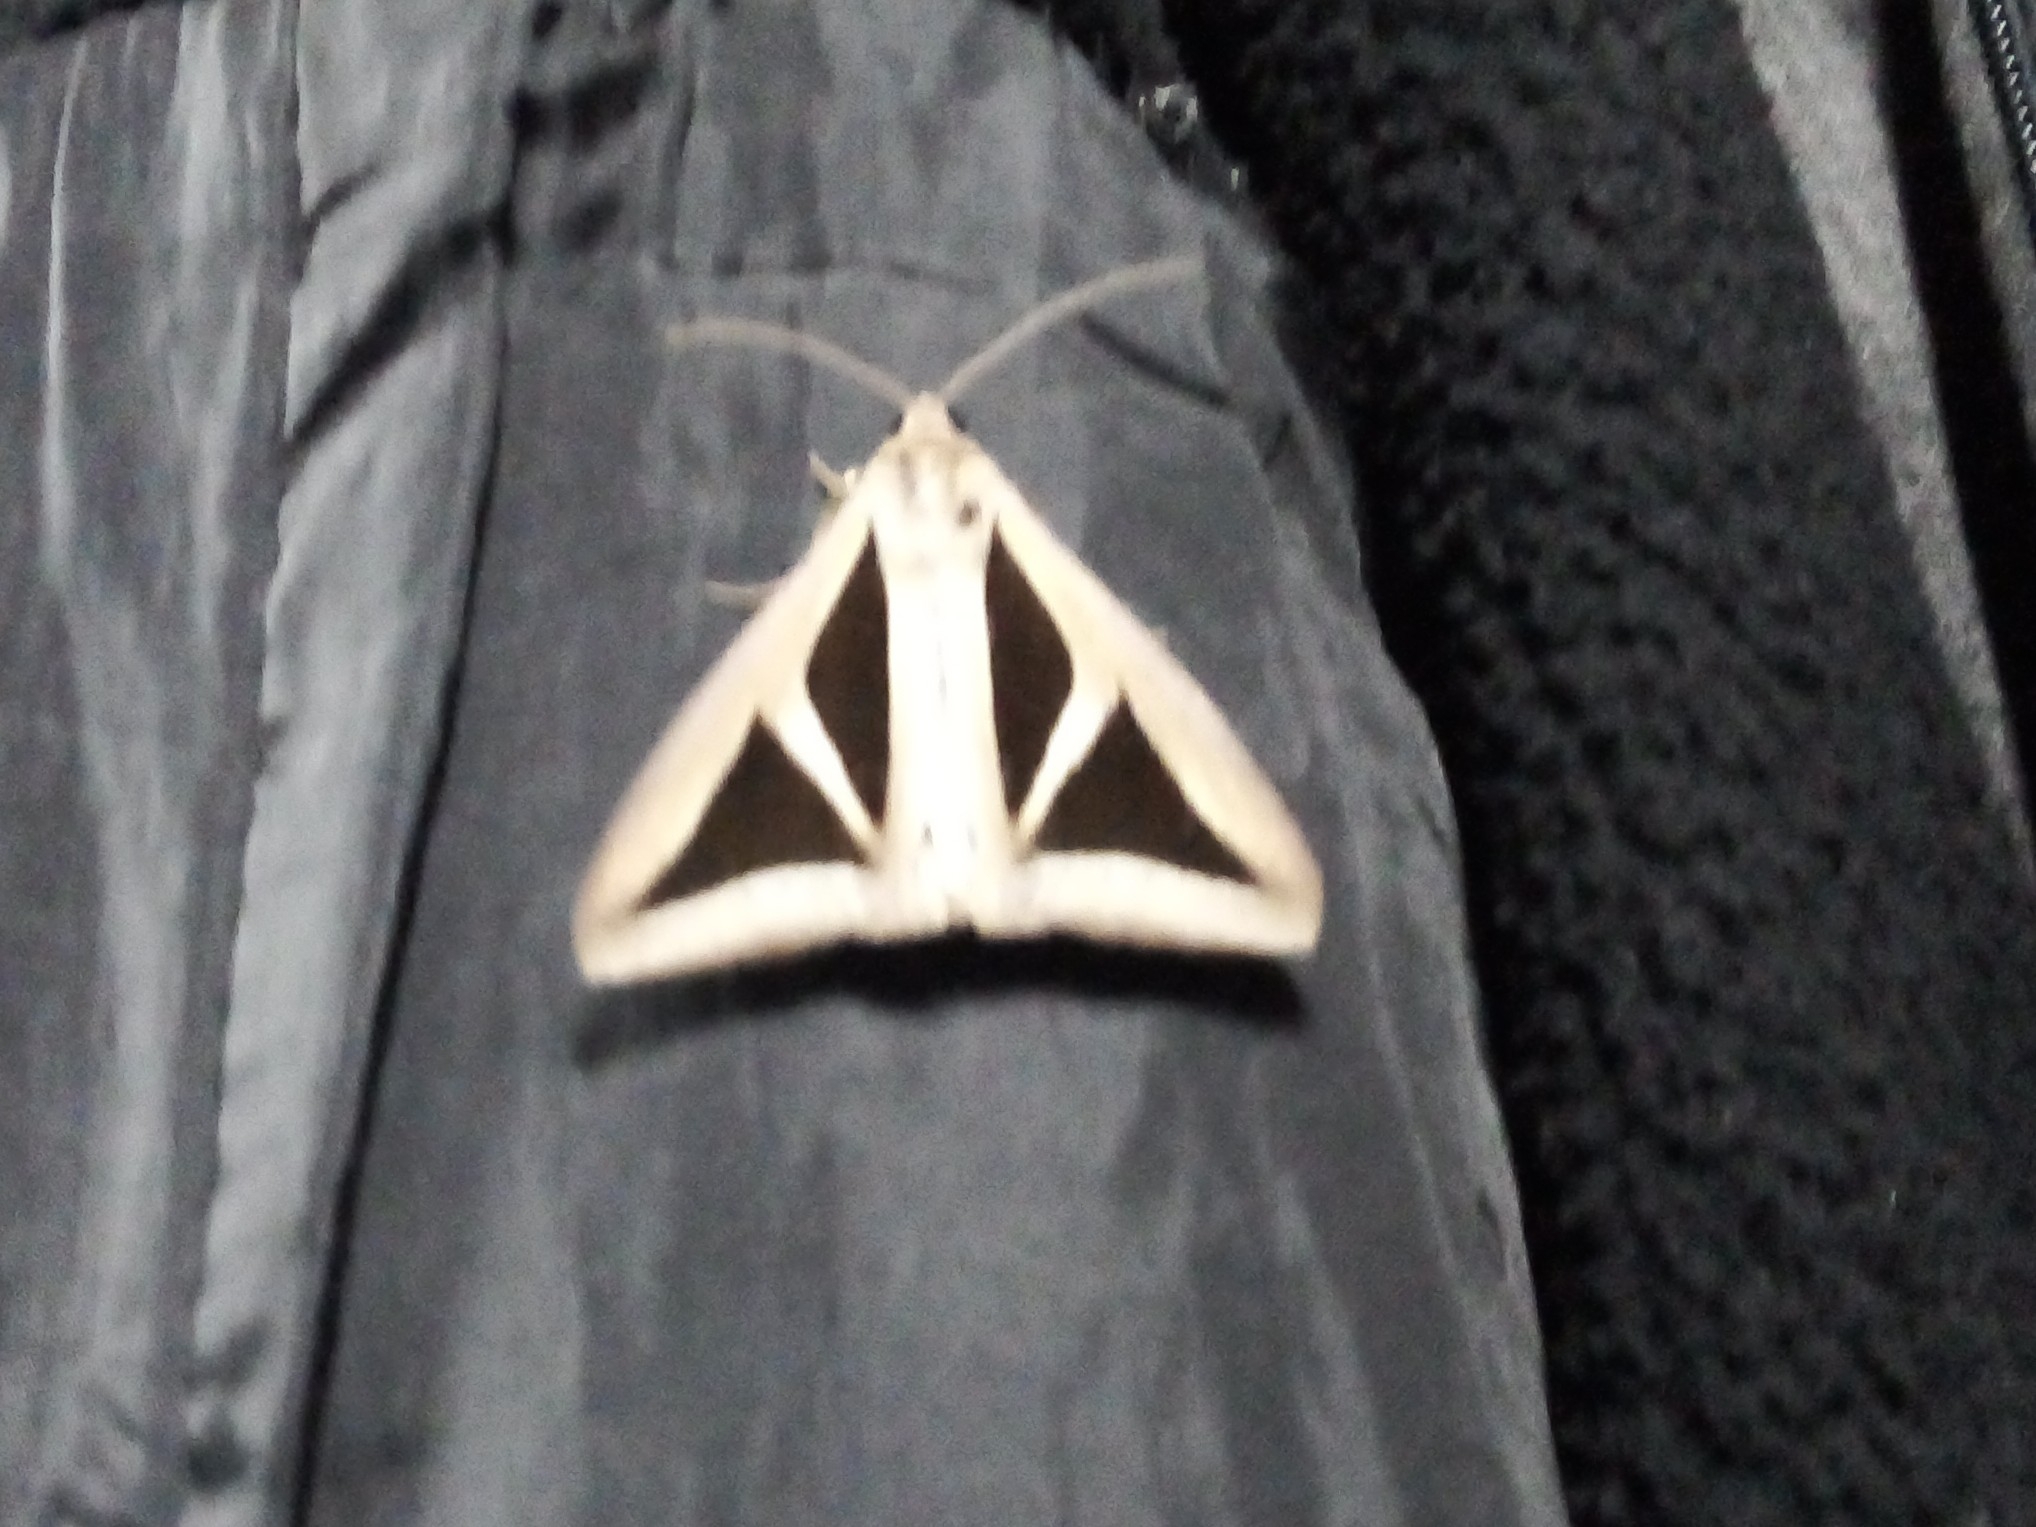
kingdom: Animalia
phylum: Arthropoda
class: Insecta
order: Lepidoptera
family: Erebidae
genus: Trigonodes
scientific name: Trigonodes cephise
